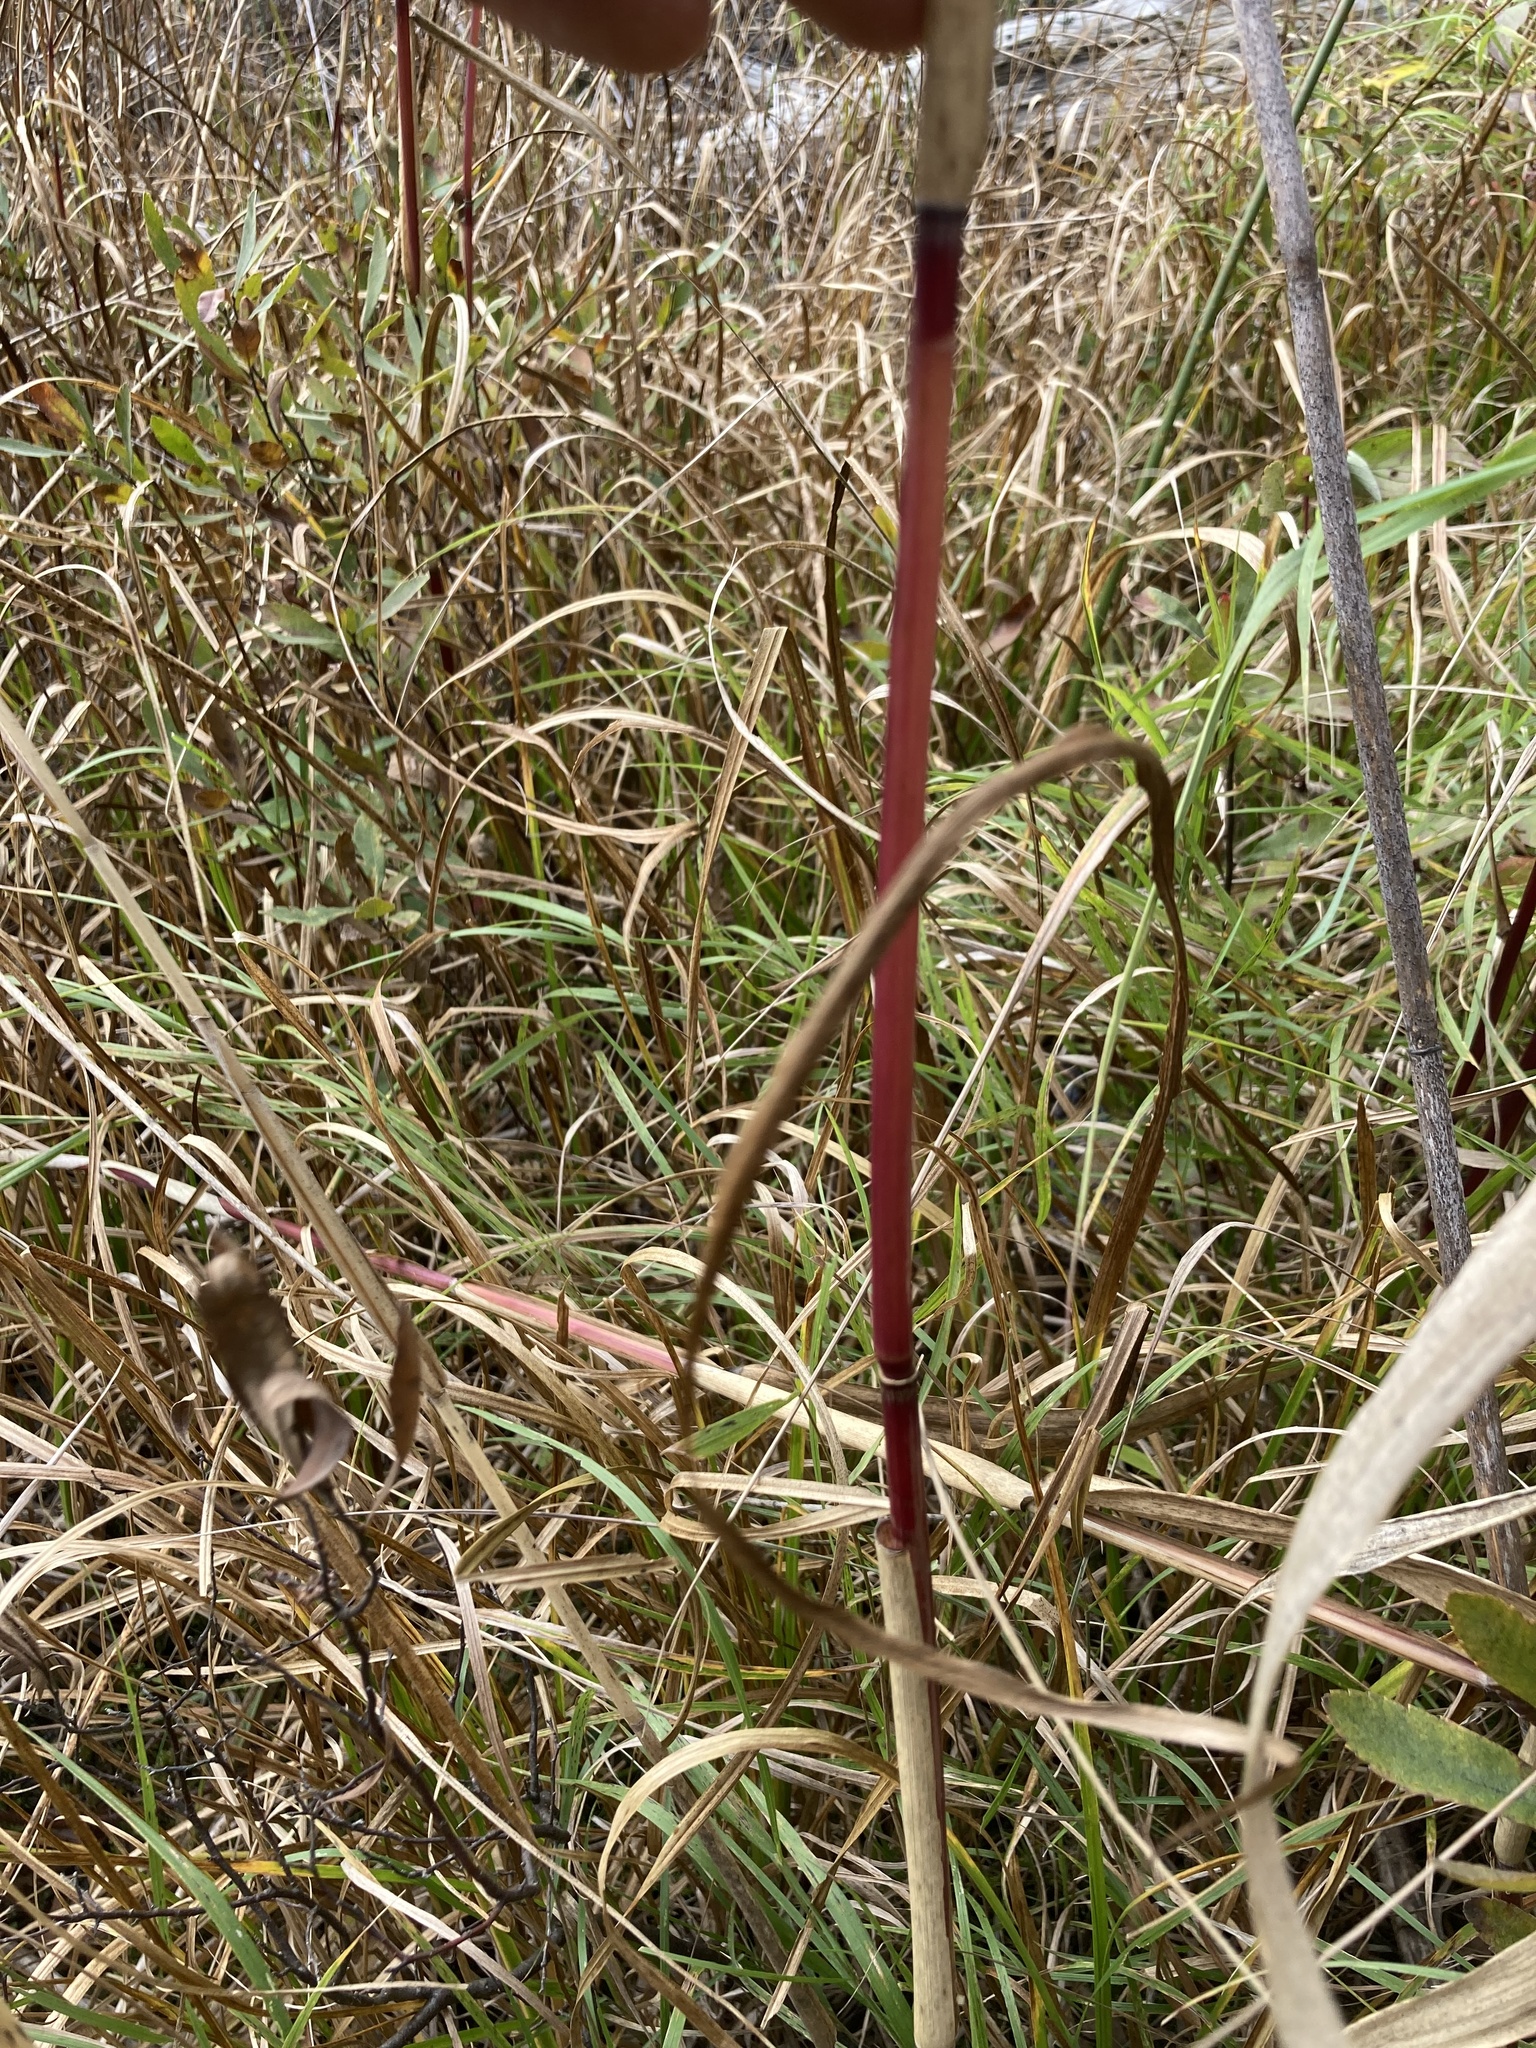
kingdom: Plantae
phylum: Tracheophyta
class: Liliopsida
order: Poales
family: Poaceae
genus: Phragmites
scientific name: Phragmites australis
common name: Common reed
